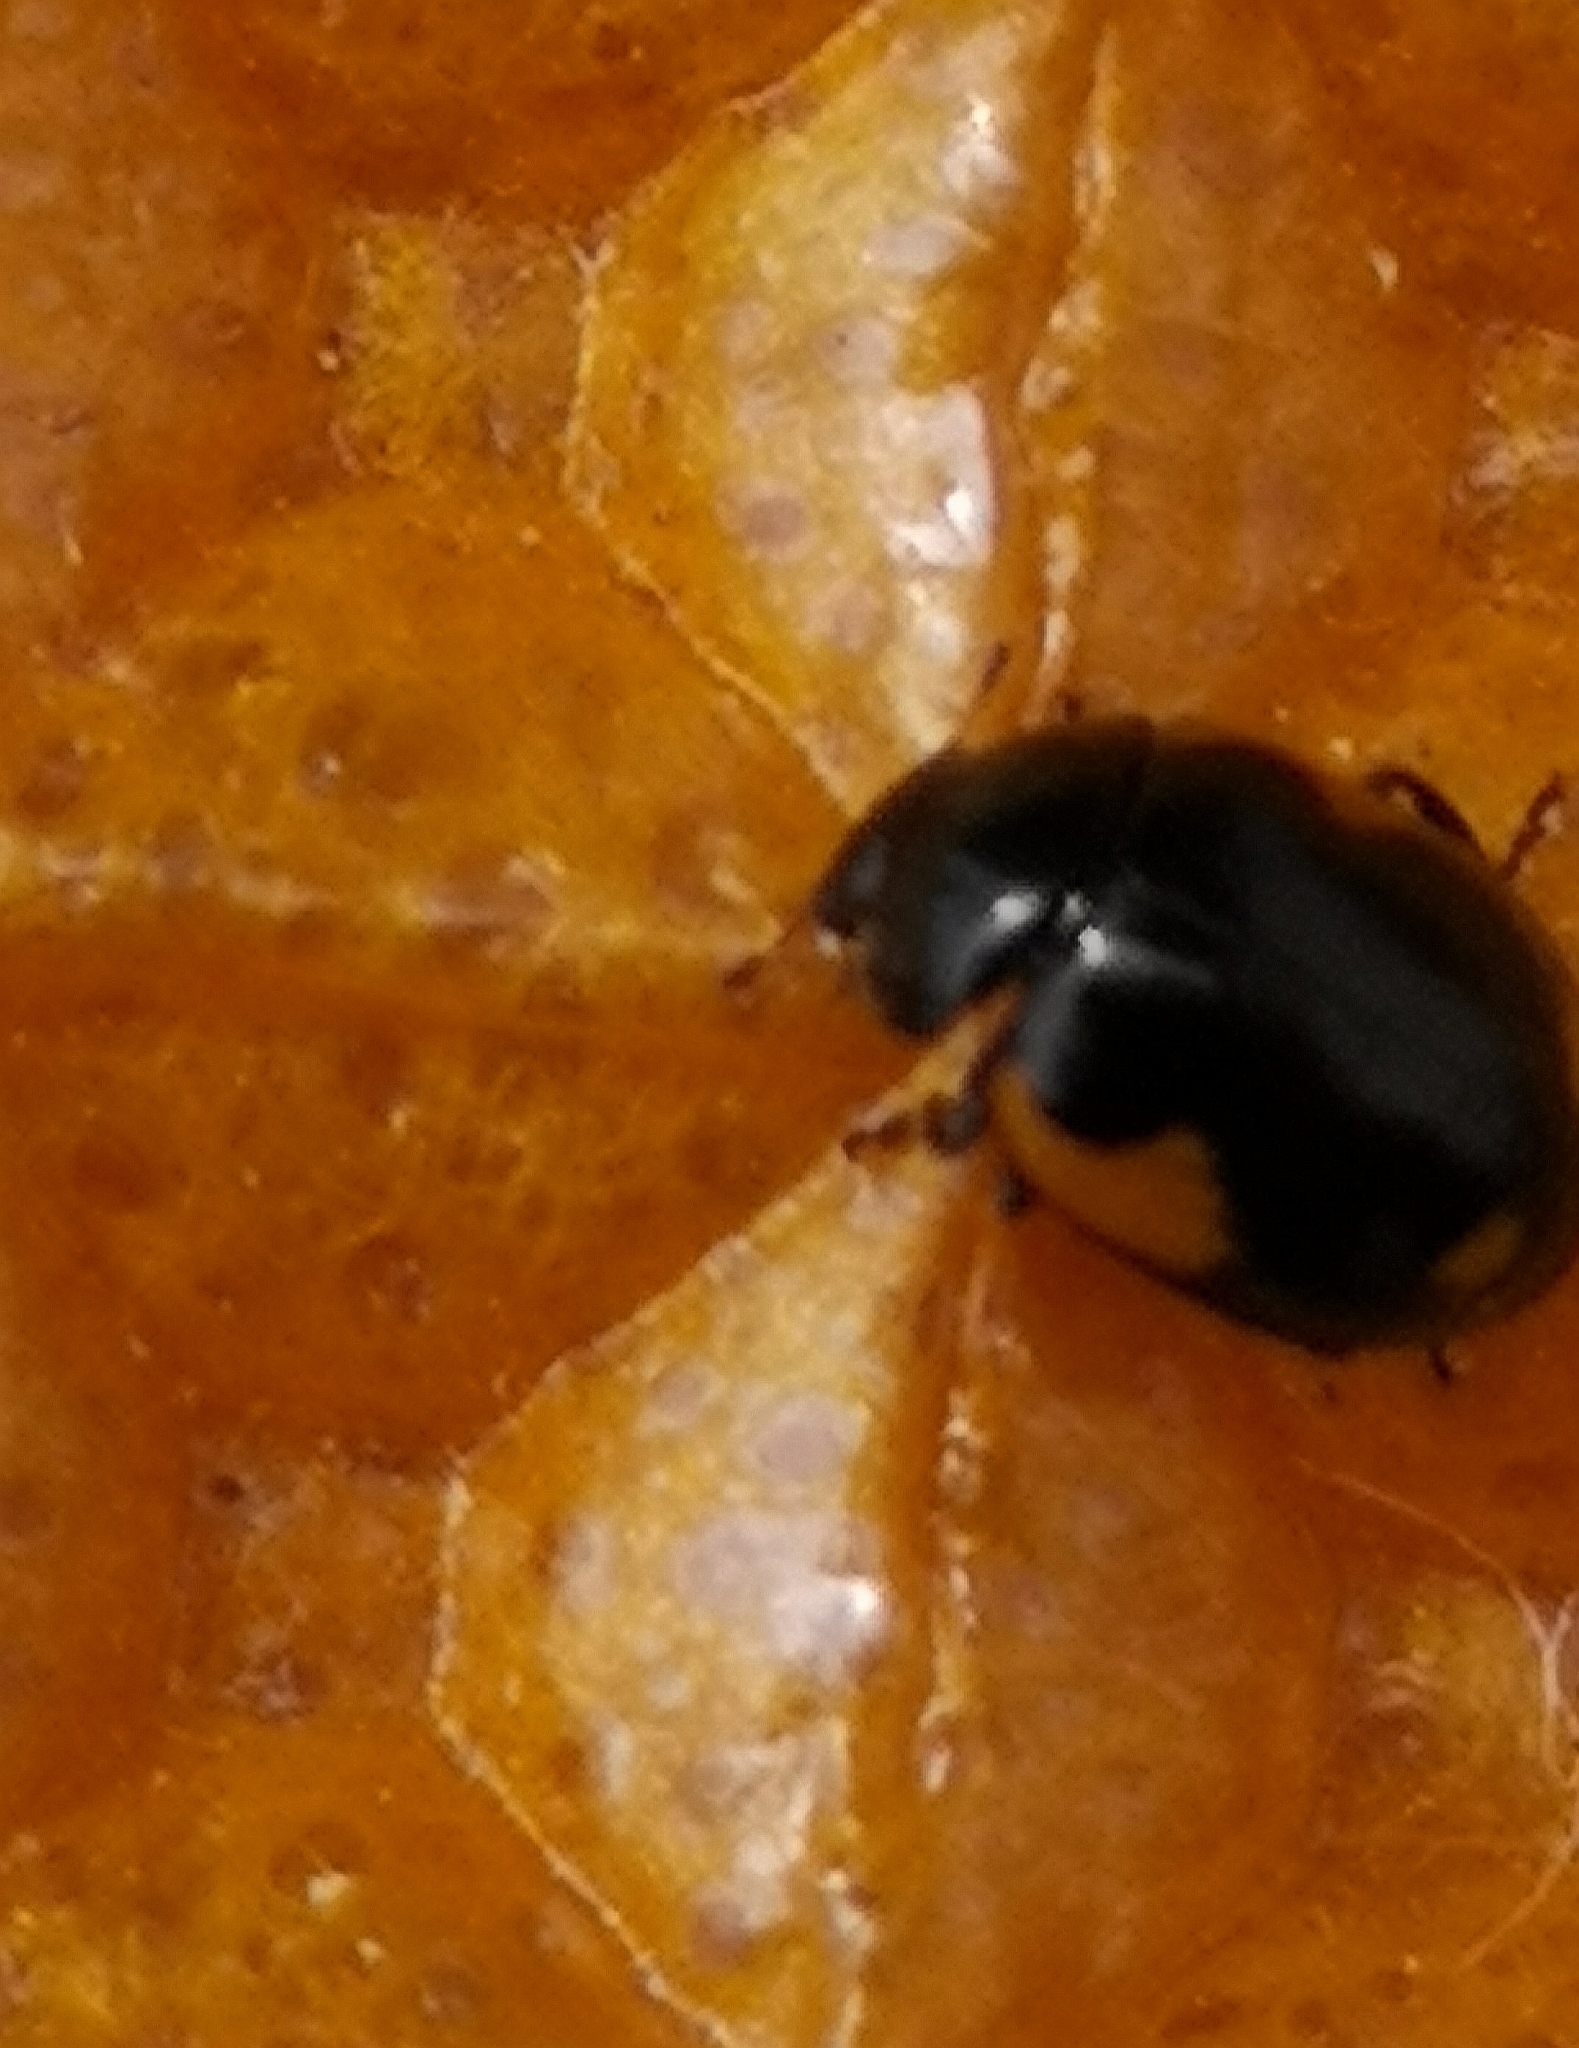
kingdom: Animalia
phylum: Arthropoda
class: Insecta
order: Coleoptera
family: Coccinellidae
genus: Ceratomegilla
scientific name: Ceratomegilla alpina
